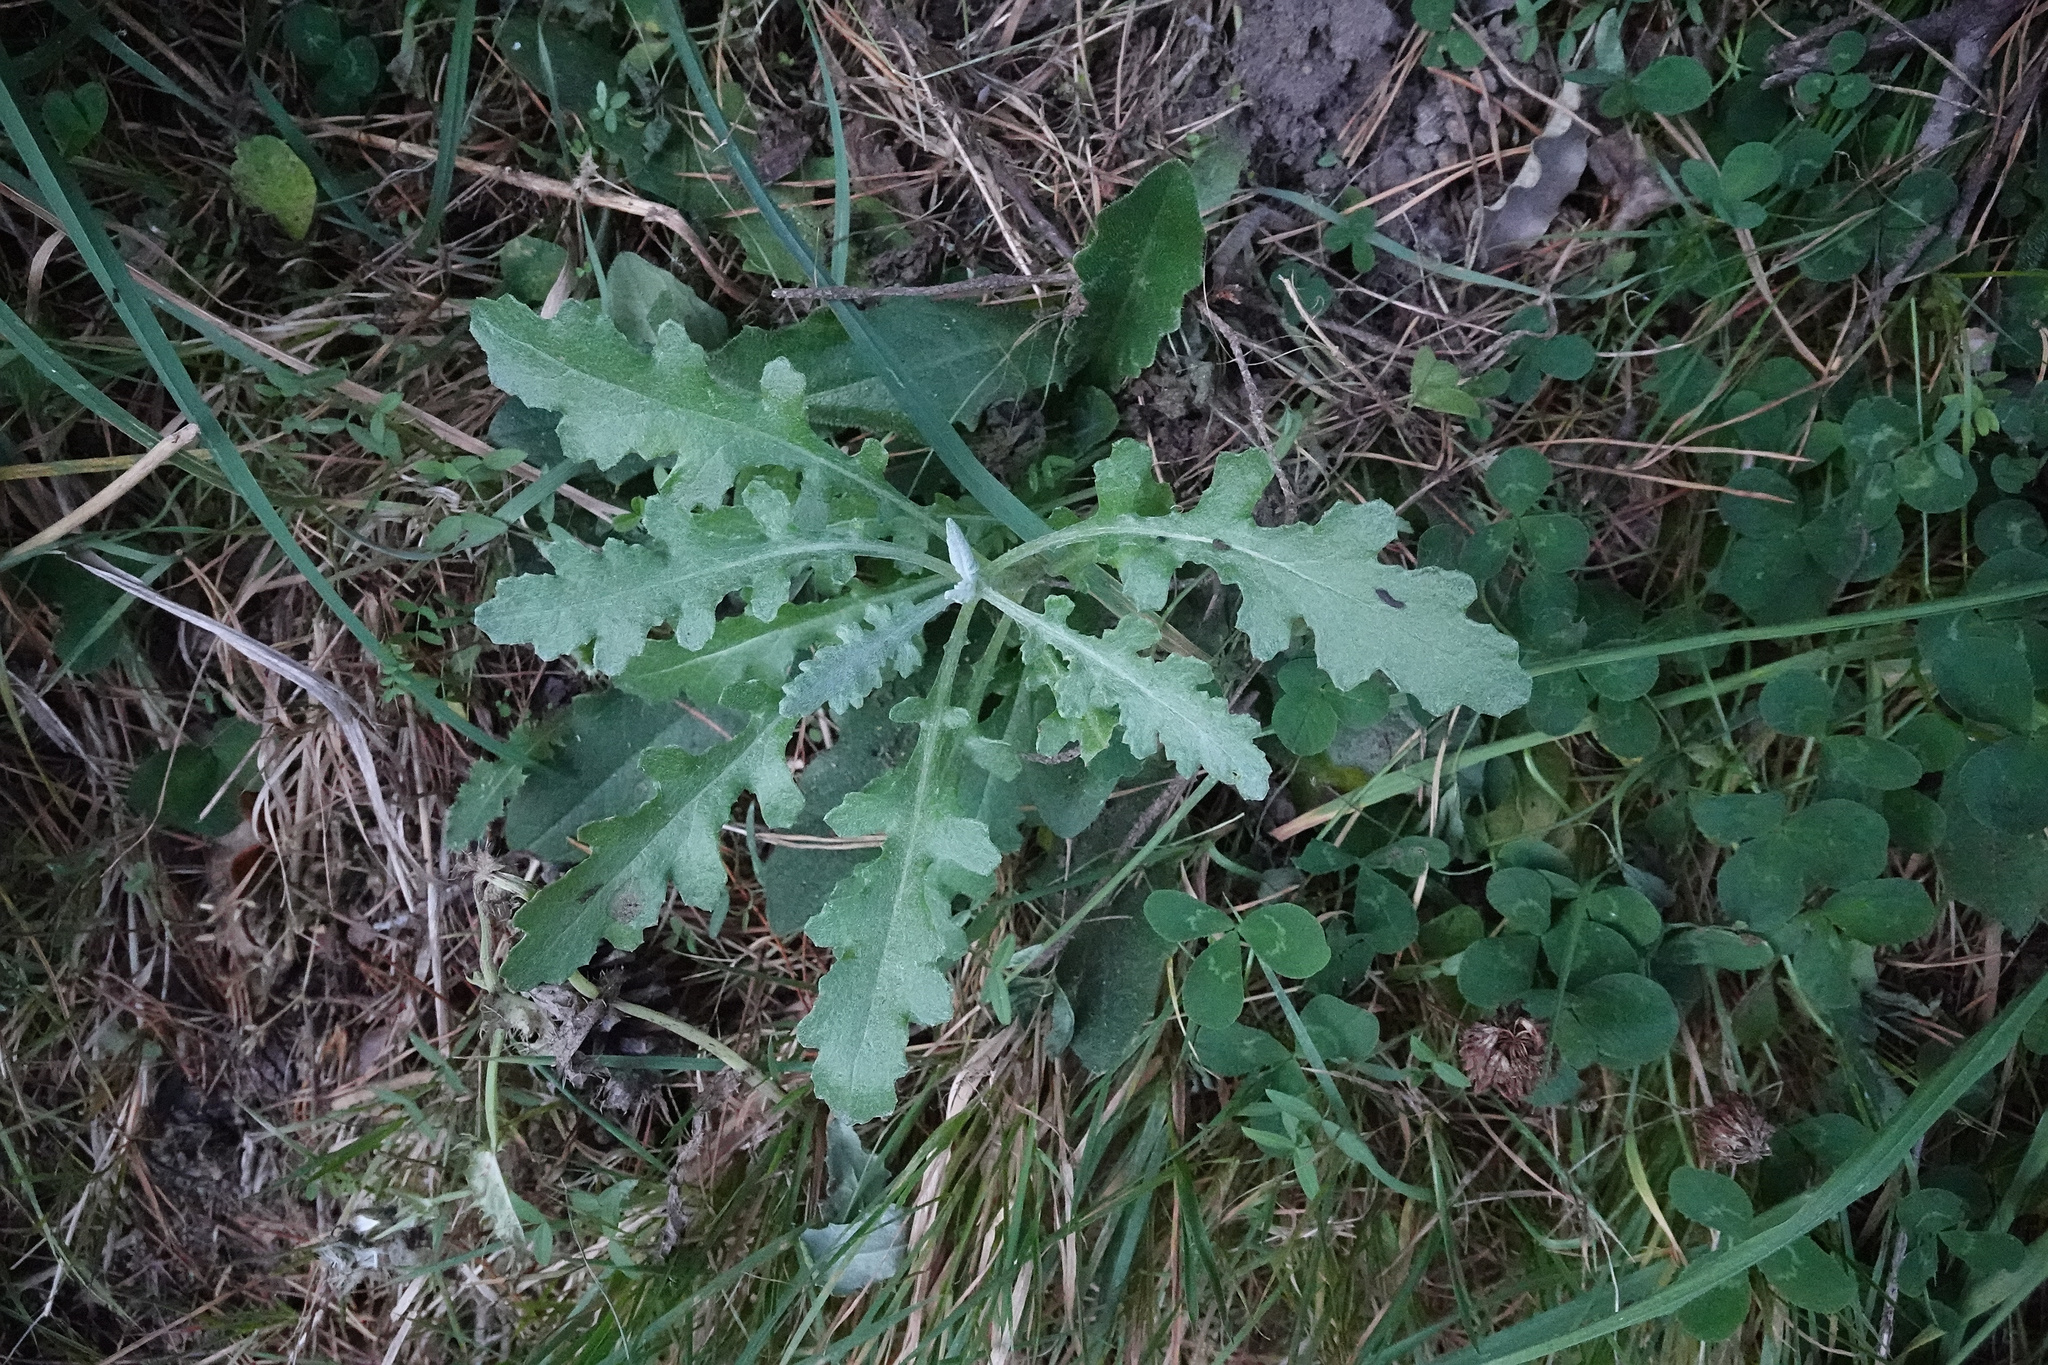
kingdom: Plantae
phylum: Tracheophyta
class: Magnoliopsida
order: Asterales
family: Asteraceae
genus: Senecio
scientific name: Senecio glomeratus
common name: Cutleaf burnweed
